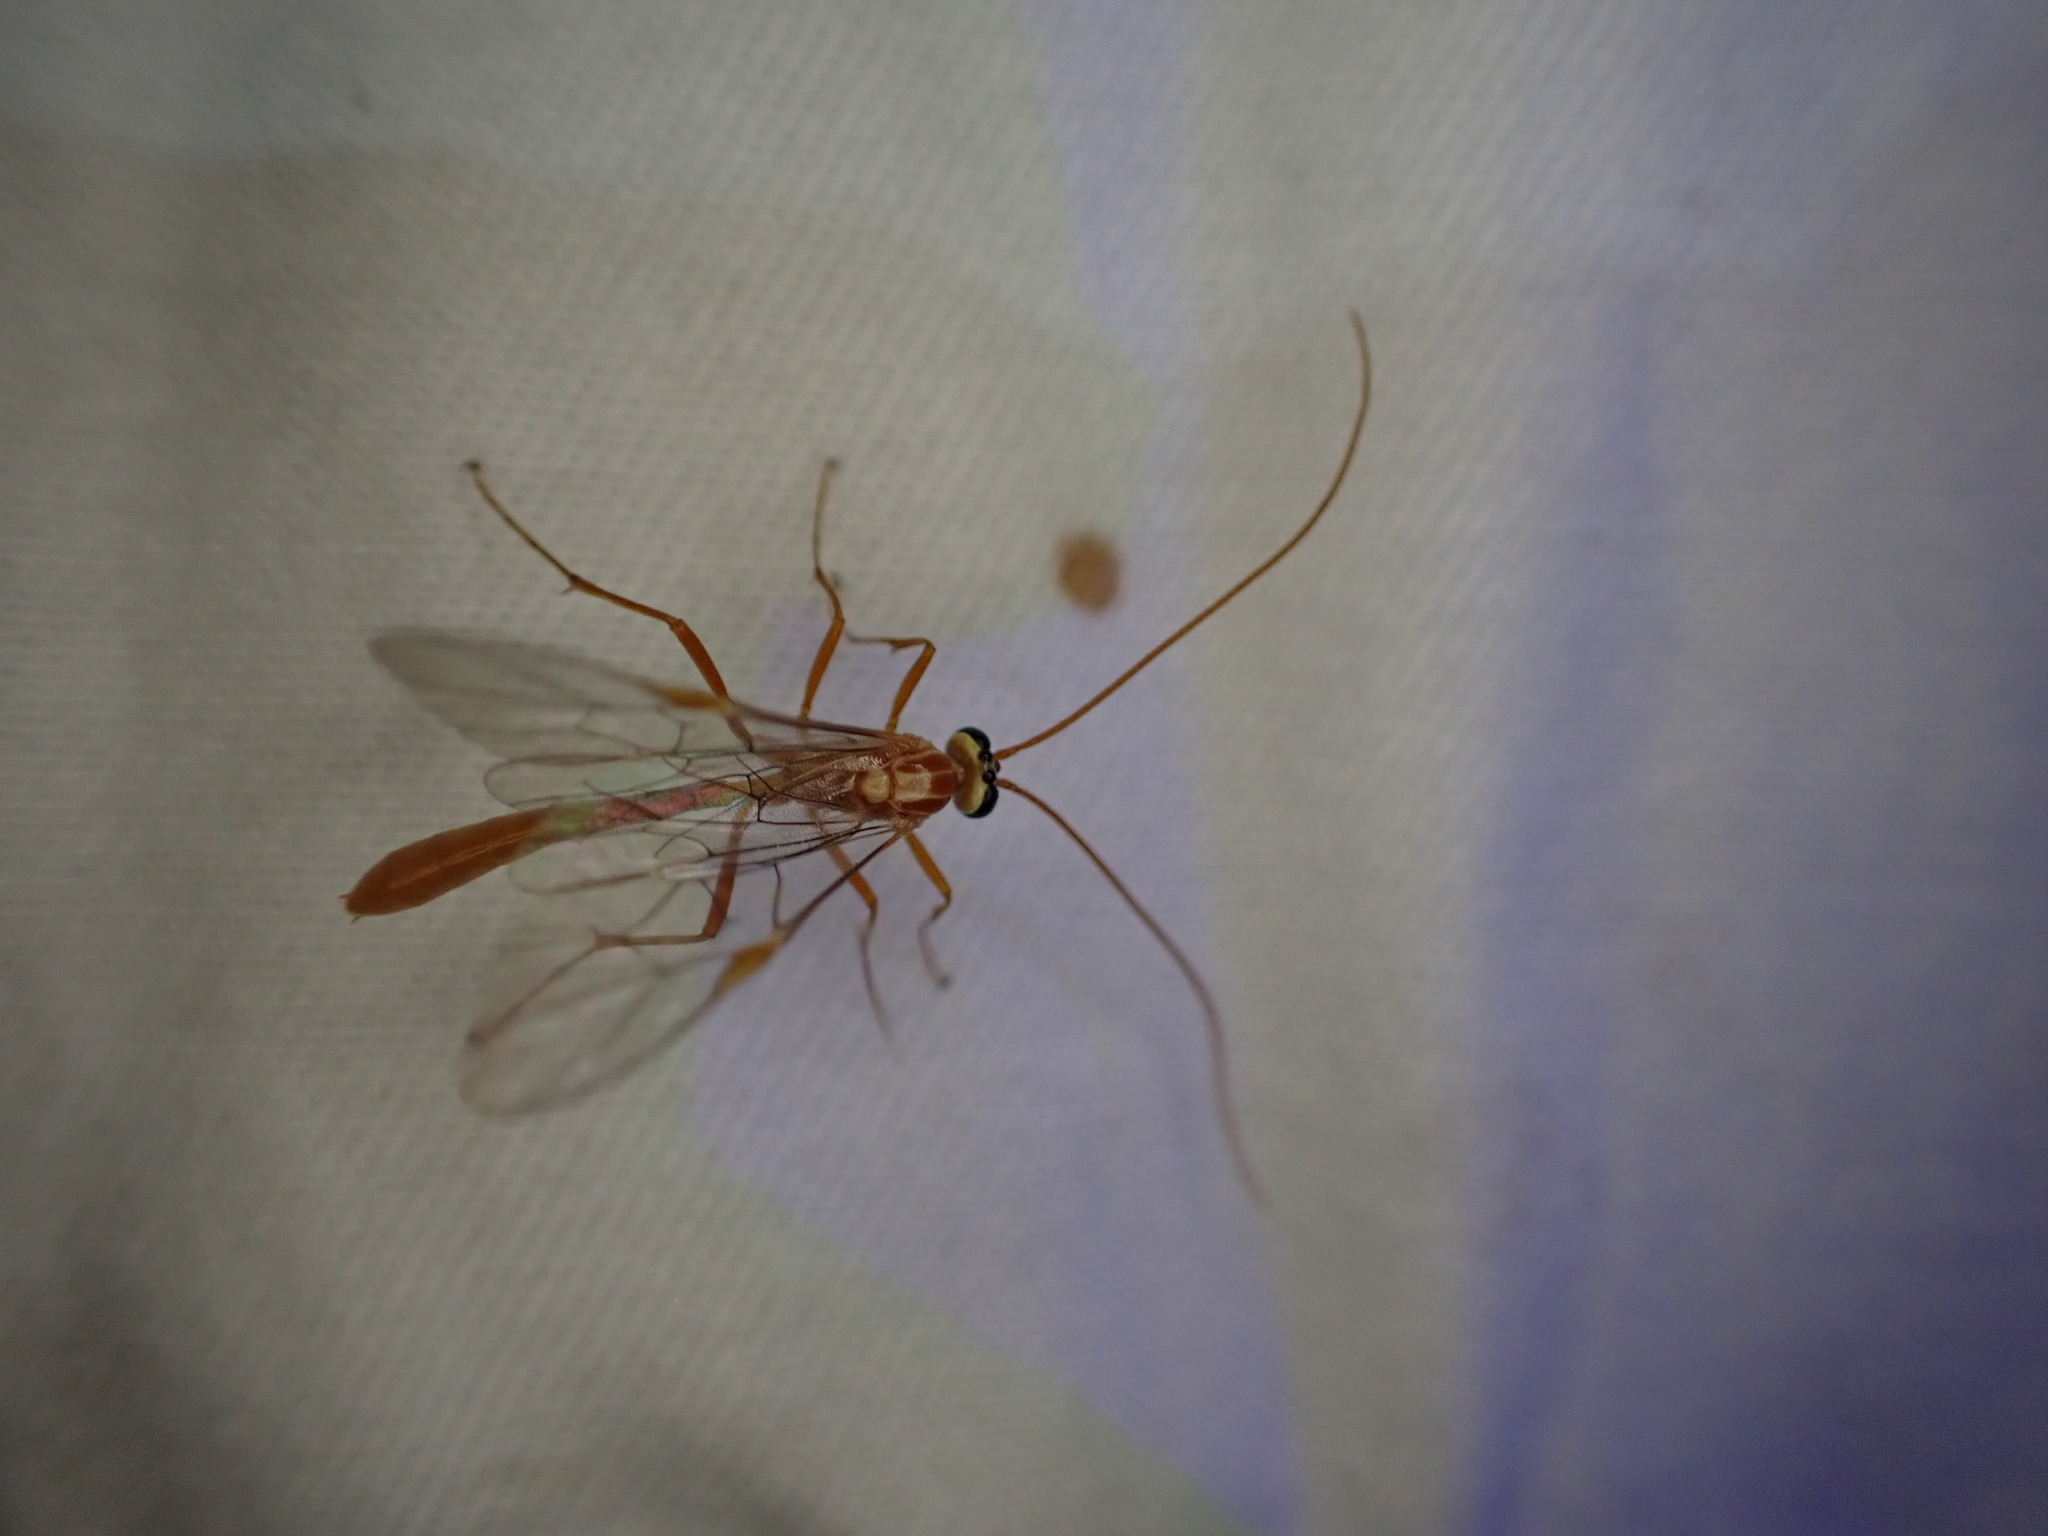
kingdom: Animalia
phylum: Arthropoda
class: Insecta
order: Hymenoptera
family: Ichneumonidae
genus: Ophion
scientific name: Ophion
